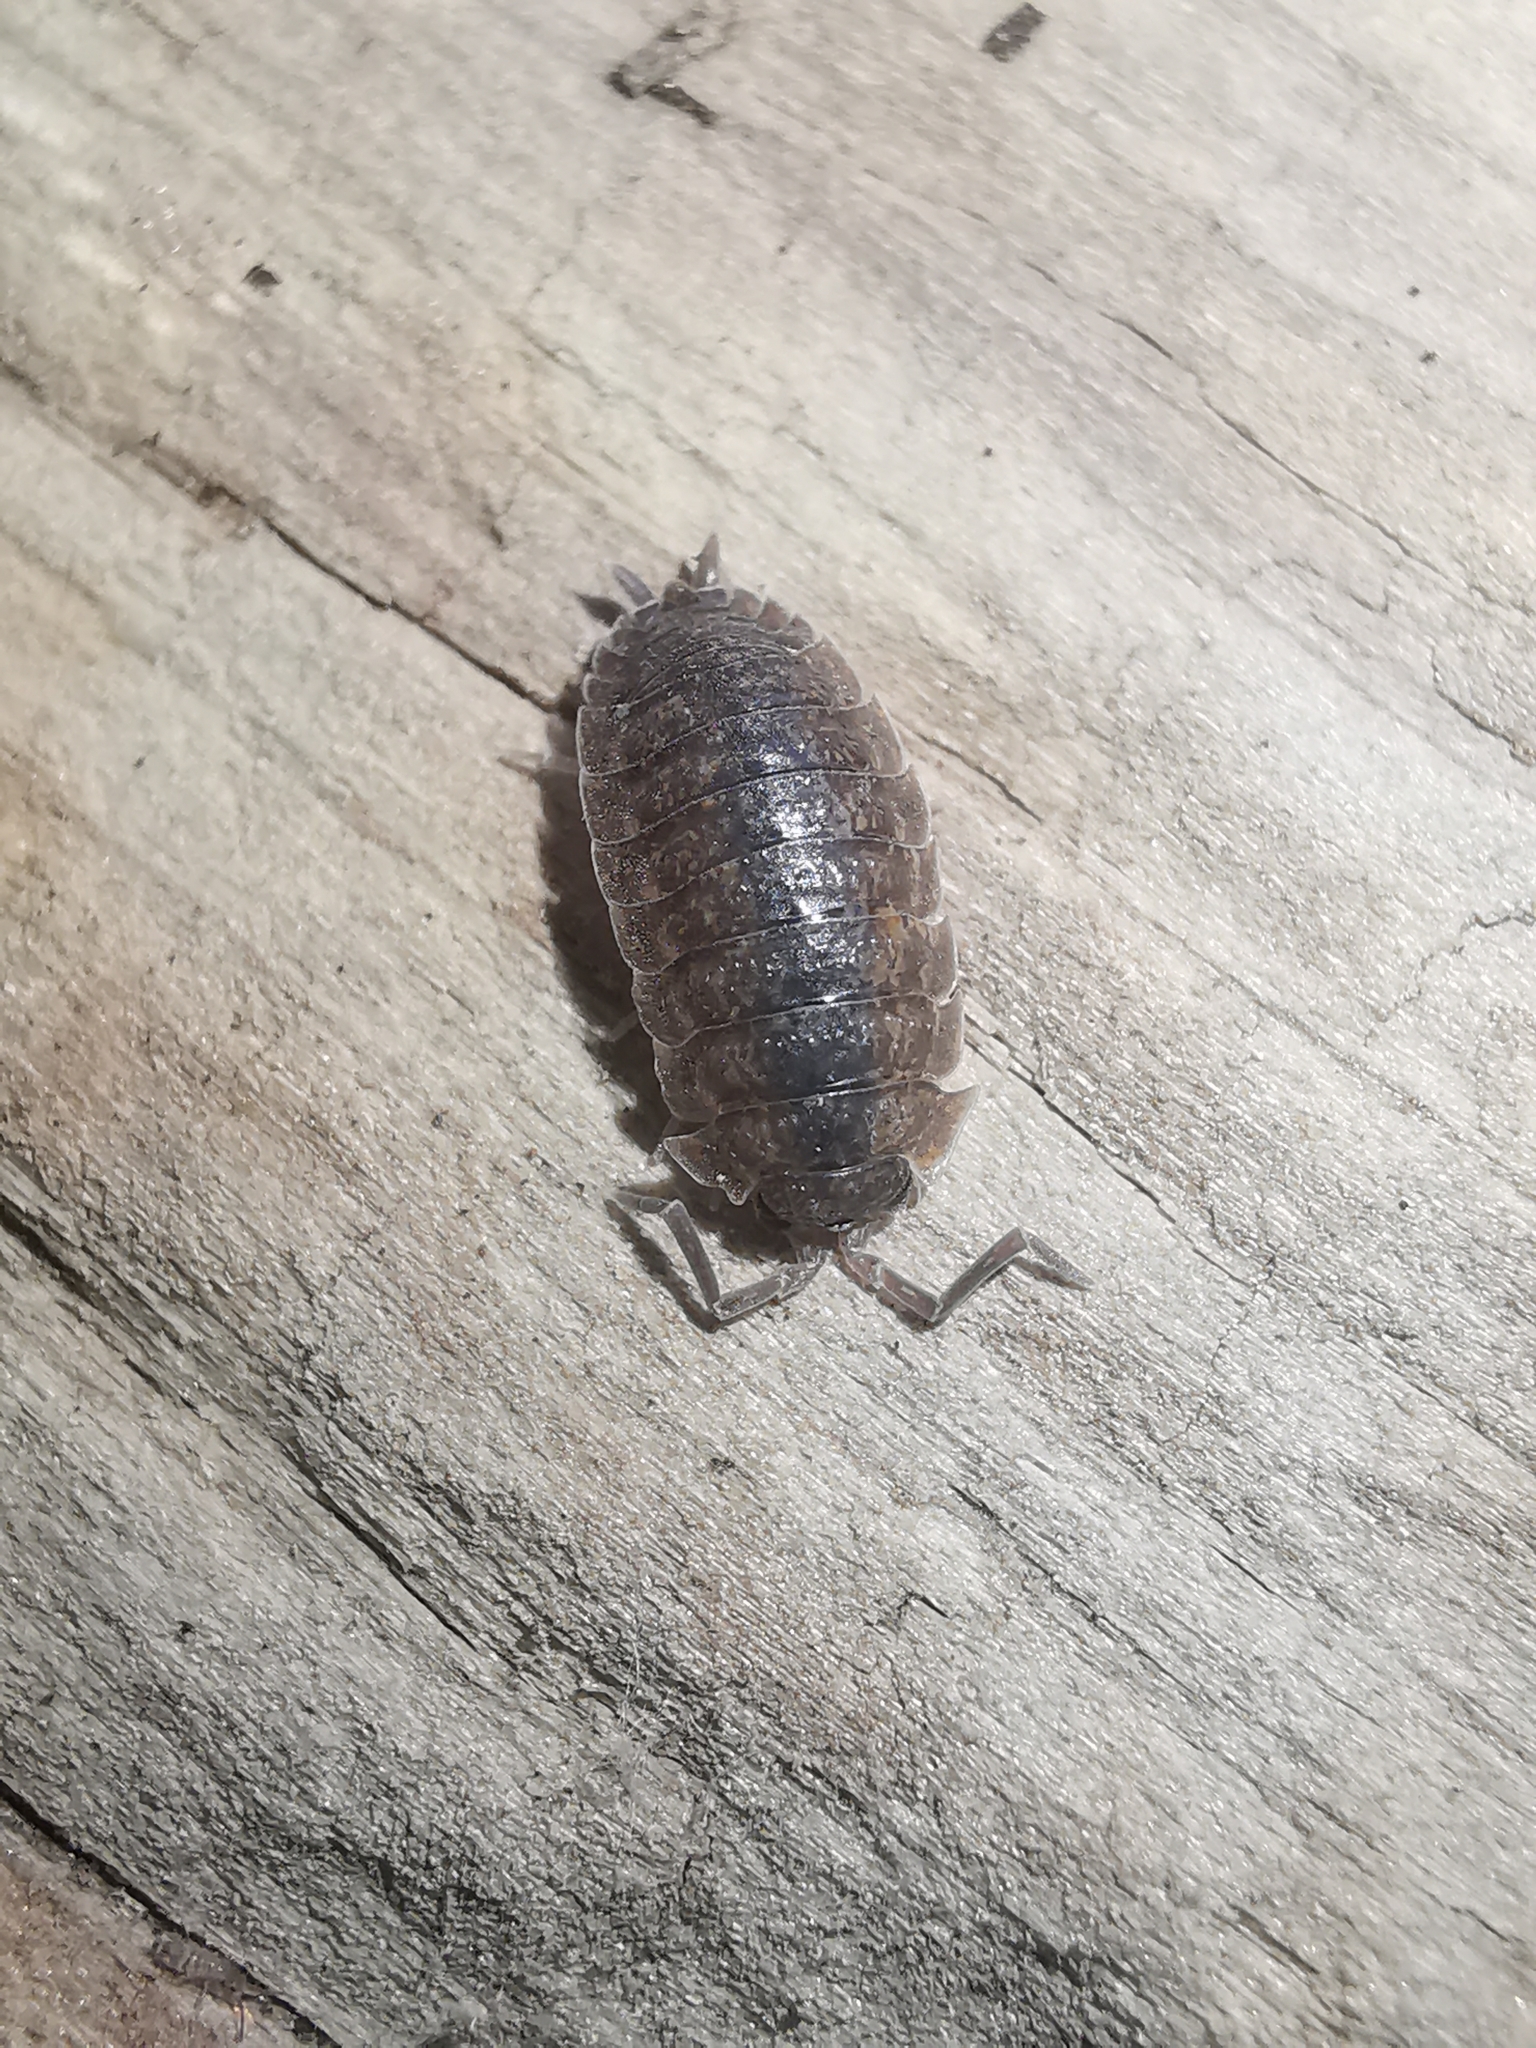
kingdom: Animalia
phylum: Arthropoda
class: Malacostraca
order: Isopoda
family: Porcellionidae
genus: Porcellio
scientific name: Porcellio scaber
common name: Common rough woodlouse
